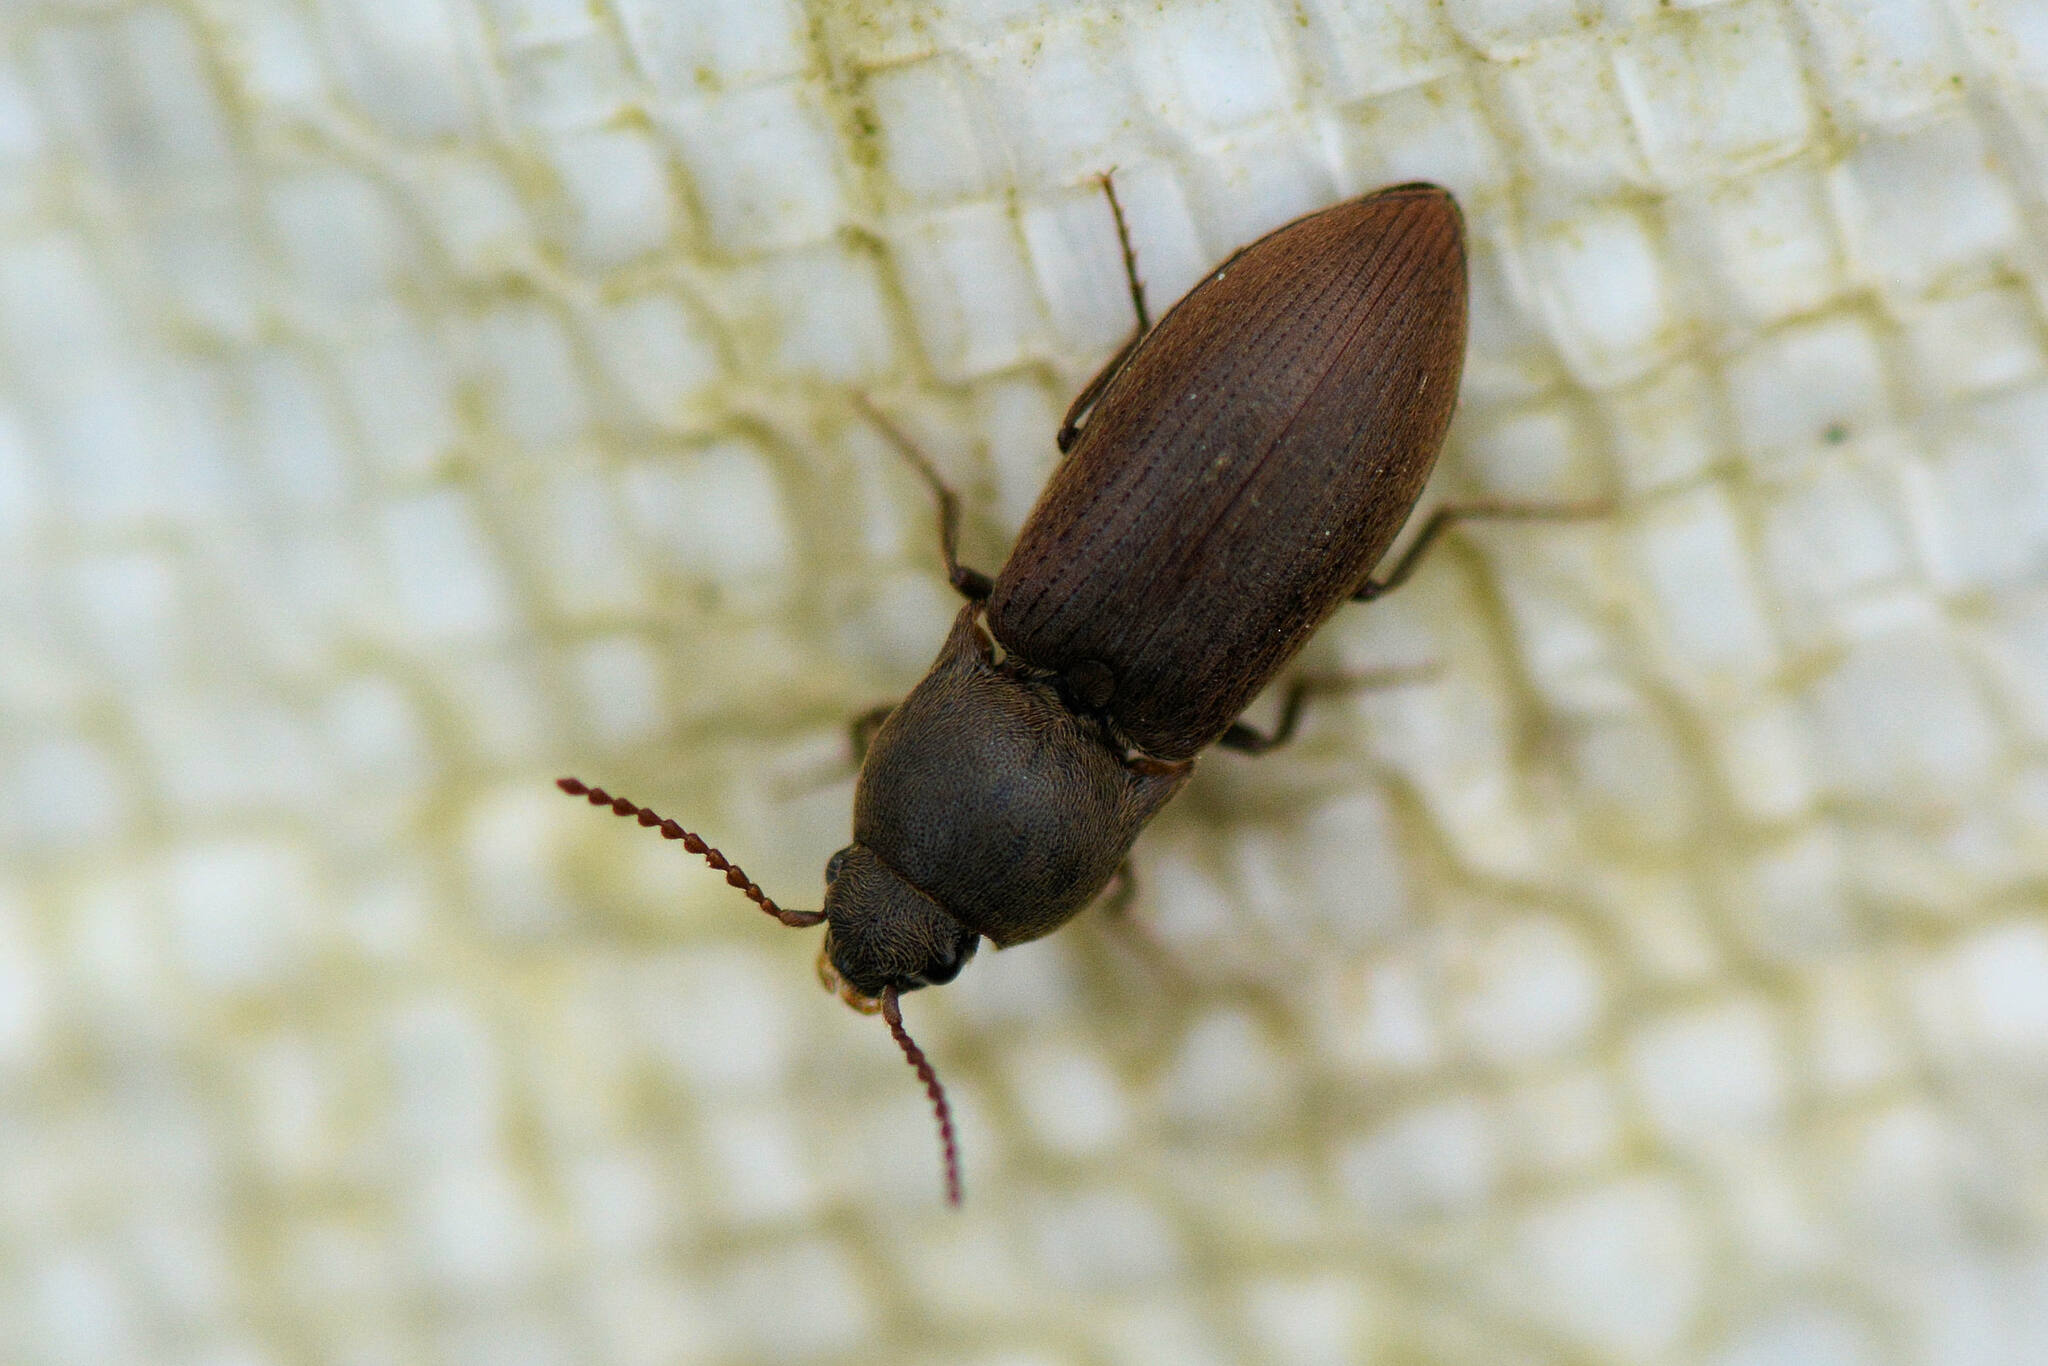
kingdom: Animalia
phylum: Arthropoda
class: Insecta
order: Coleoptera
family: Elateridae
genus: Agriotes
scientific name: Agriotes obscurus
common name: Dusky wireworm
